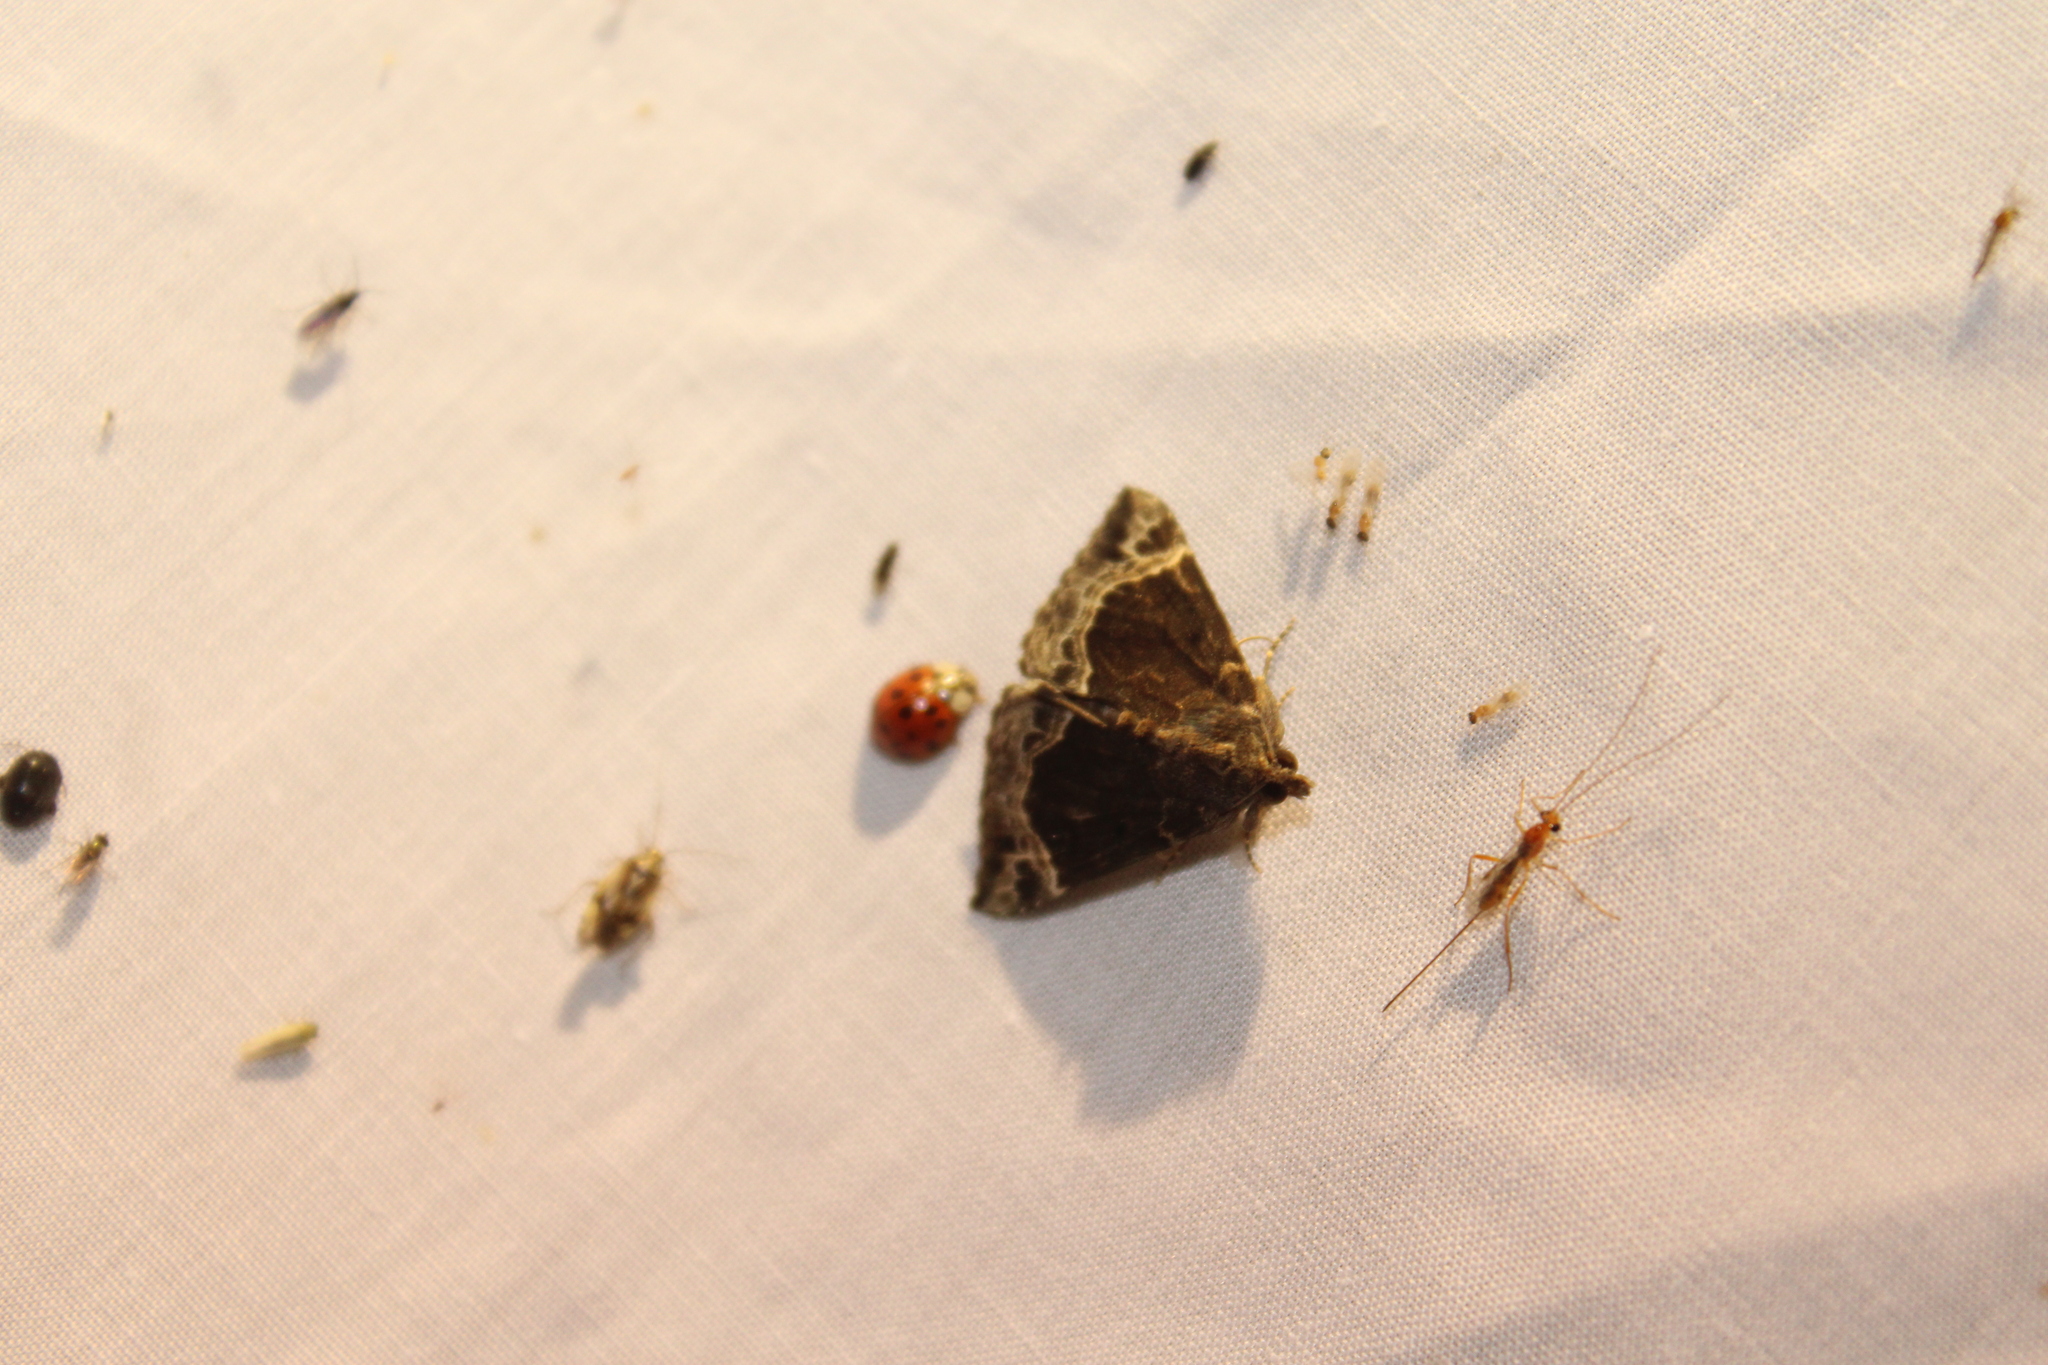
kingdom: Animalia
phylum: Arthropoda
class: Insecta
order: Lepidoptera
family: Erebidae
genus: Hypena
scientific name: Hypena abalienalis
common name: White-lined snout
